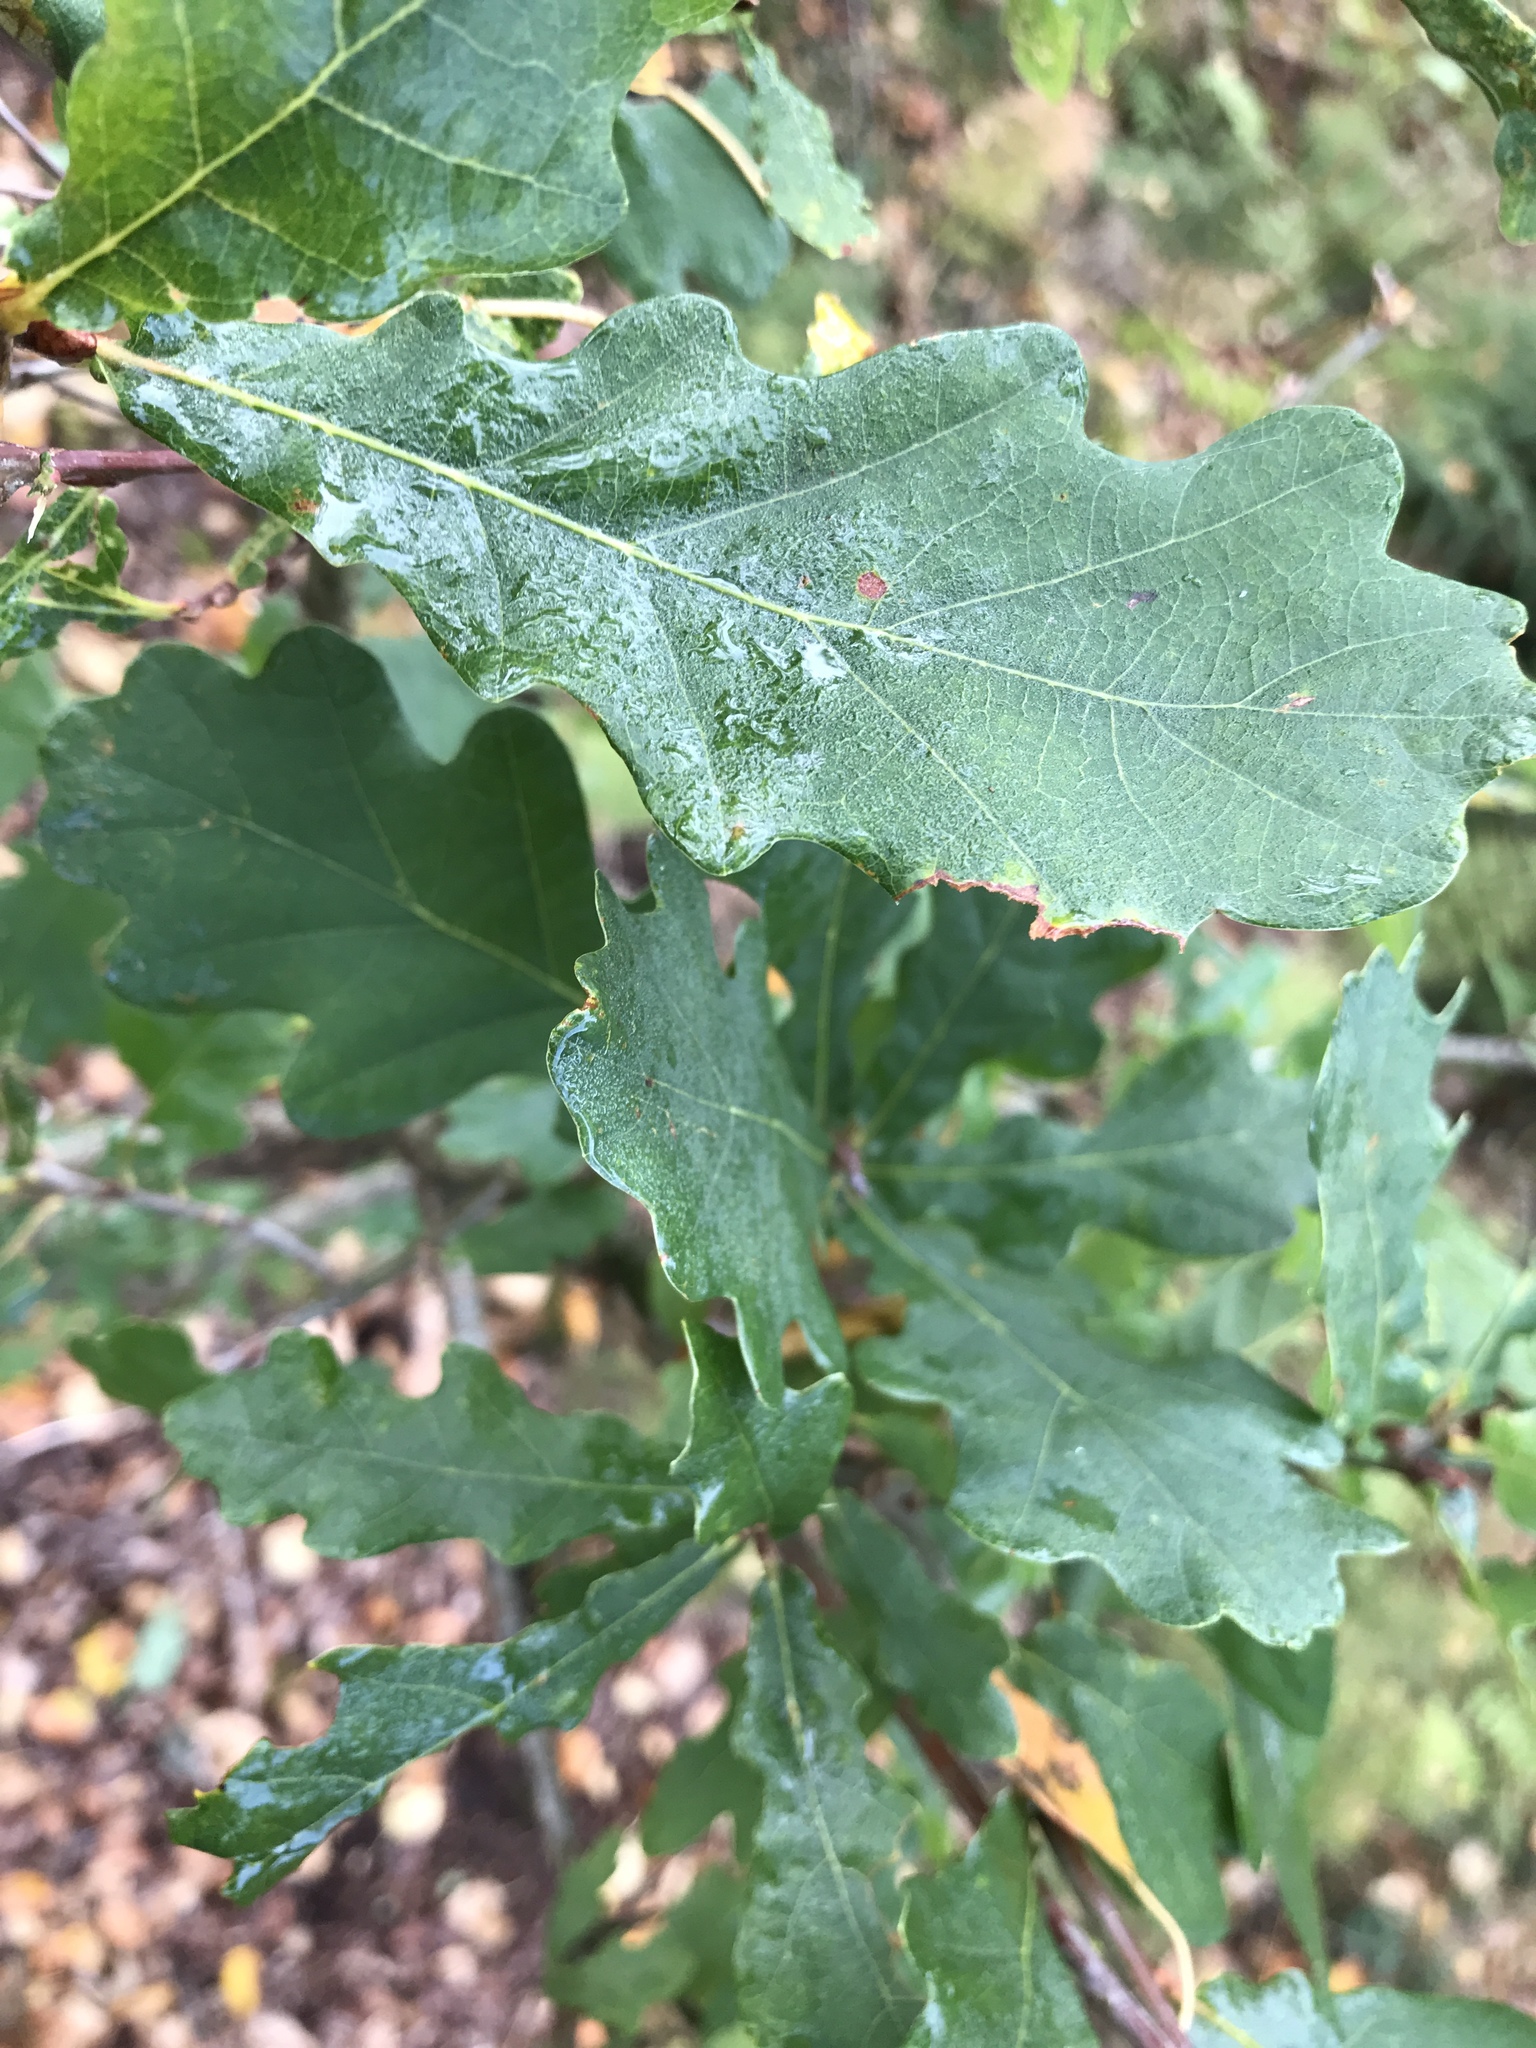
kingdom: Plantae
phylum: Tracheophyta
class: Magnoliopsida
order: Fagales
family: Fagaceae
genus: Quercus
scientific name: Quercus robur
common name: Pedunculate oak
